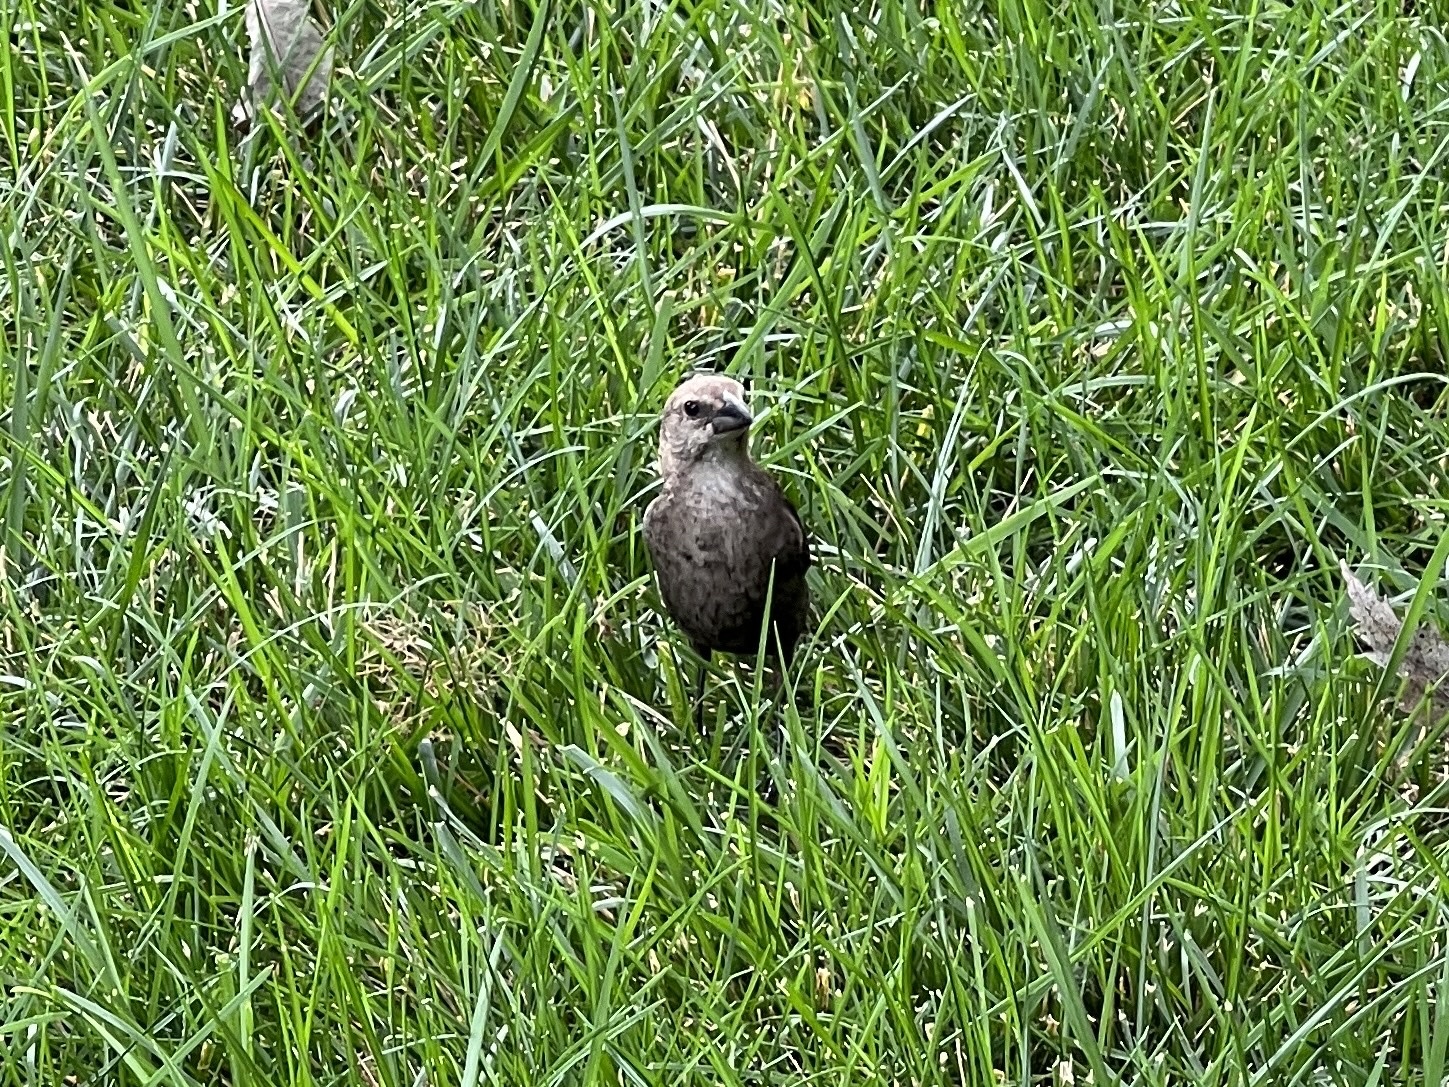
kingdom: Animalia
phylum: Chordata
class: Aves
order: Passeriformes
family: Icteridae
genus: Molothrus
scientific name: Molothrus ater
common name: Brown-headed cowbird
